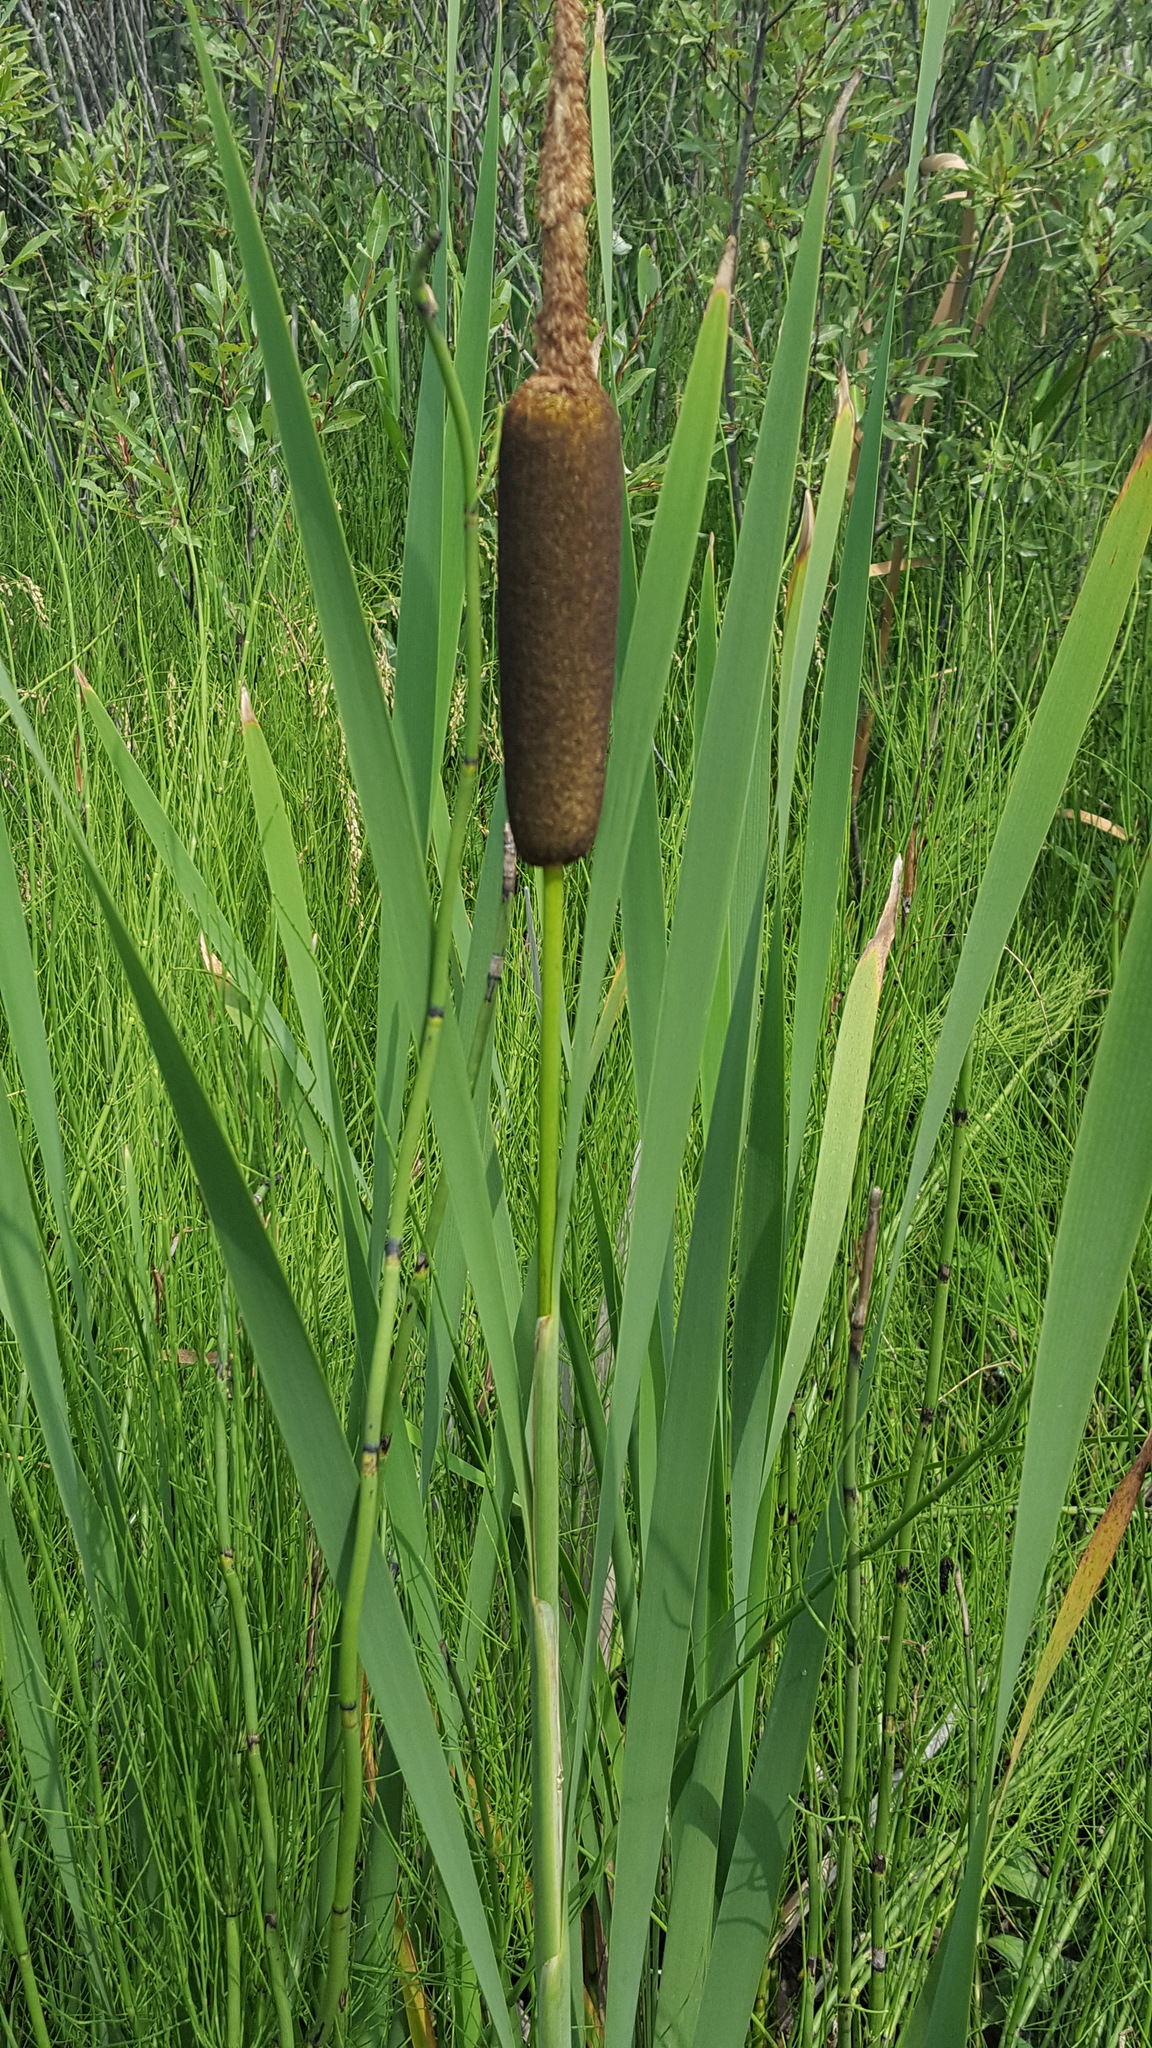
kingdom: Plantae
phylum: Tracheophyta
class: Liliopsida
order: Poales
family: Typhaceae
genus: Typha
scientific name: Typha latifolia
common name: Broadleaf cattail
